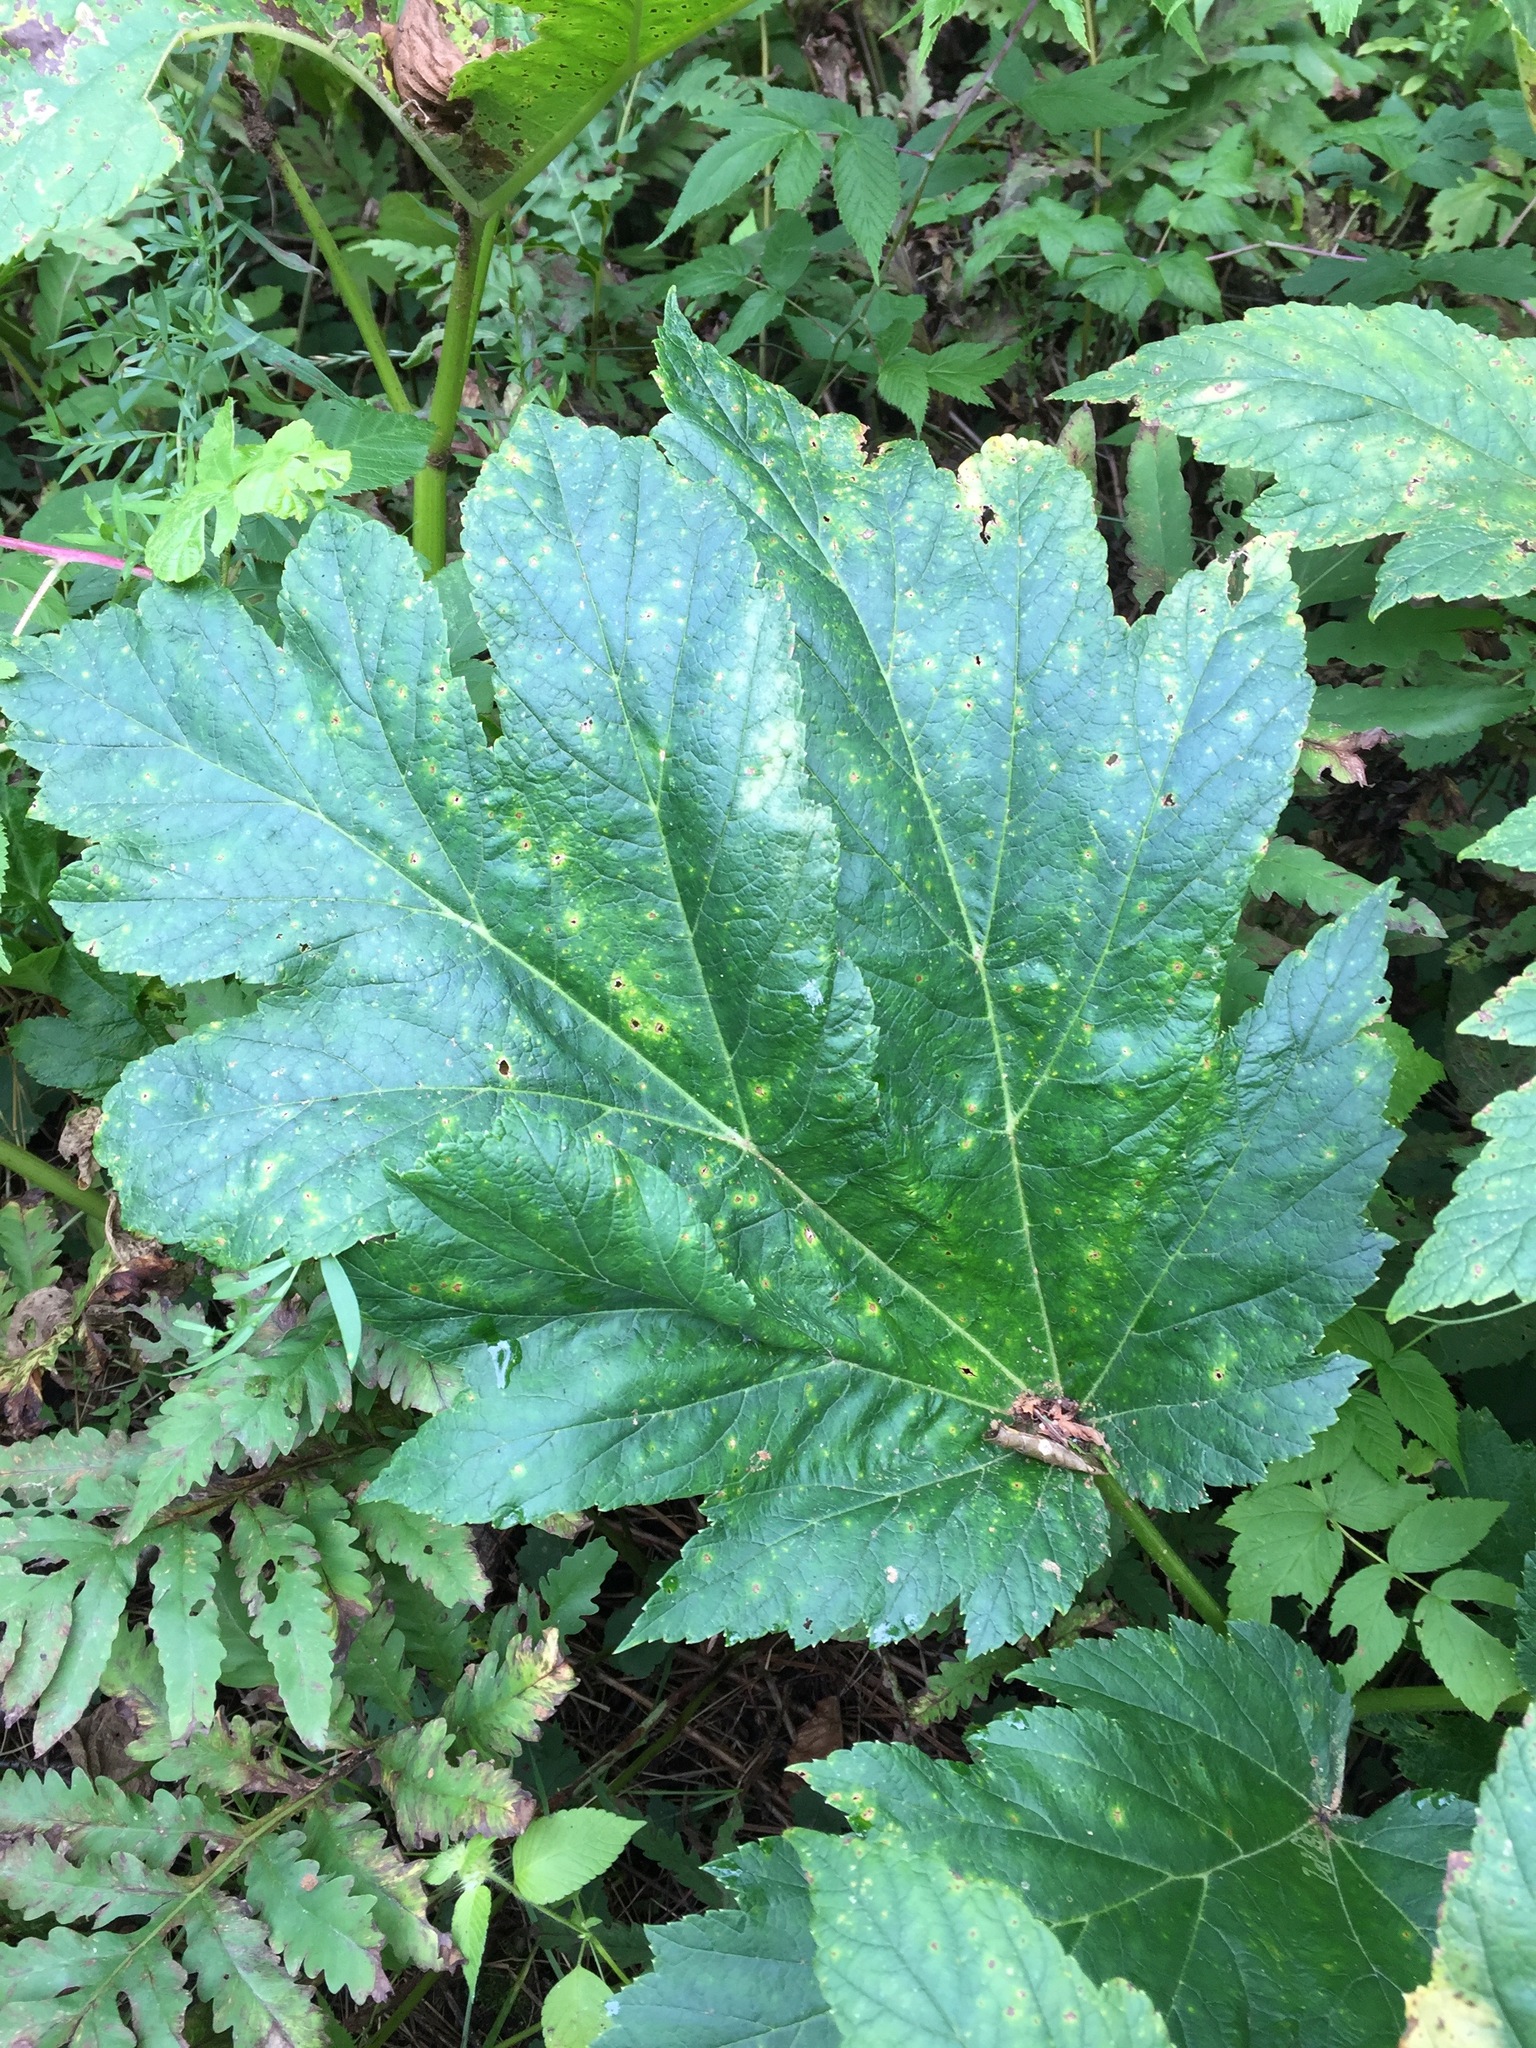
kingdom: Plantae
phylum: Tracheophyta
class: Magnoliopsida
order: Apiales
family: Apiaceae
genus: Heracleum
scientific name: Heracleum maximum
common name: American cow parsnip
